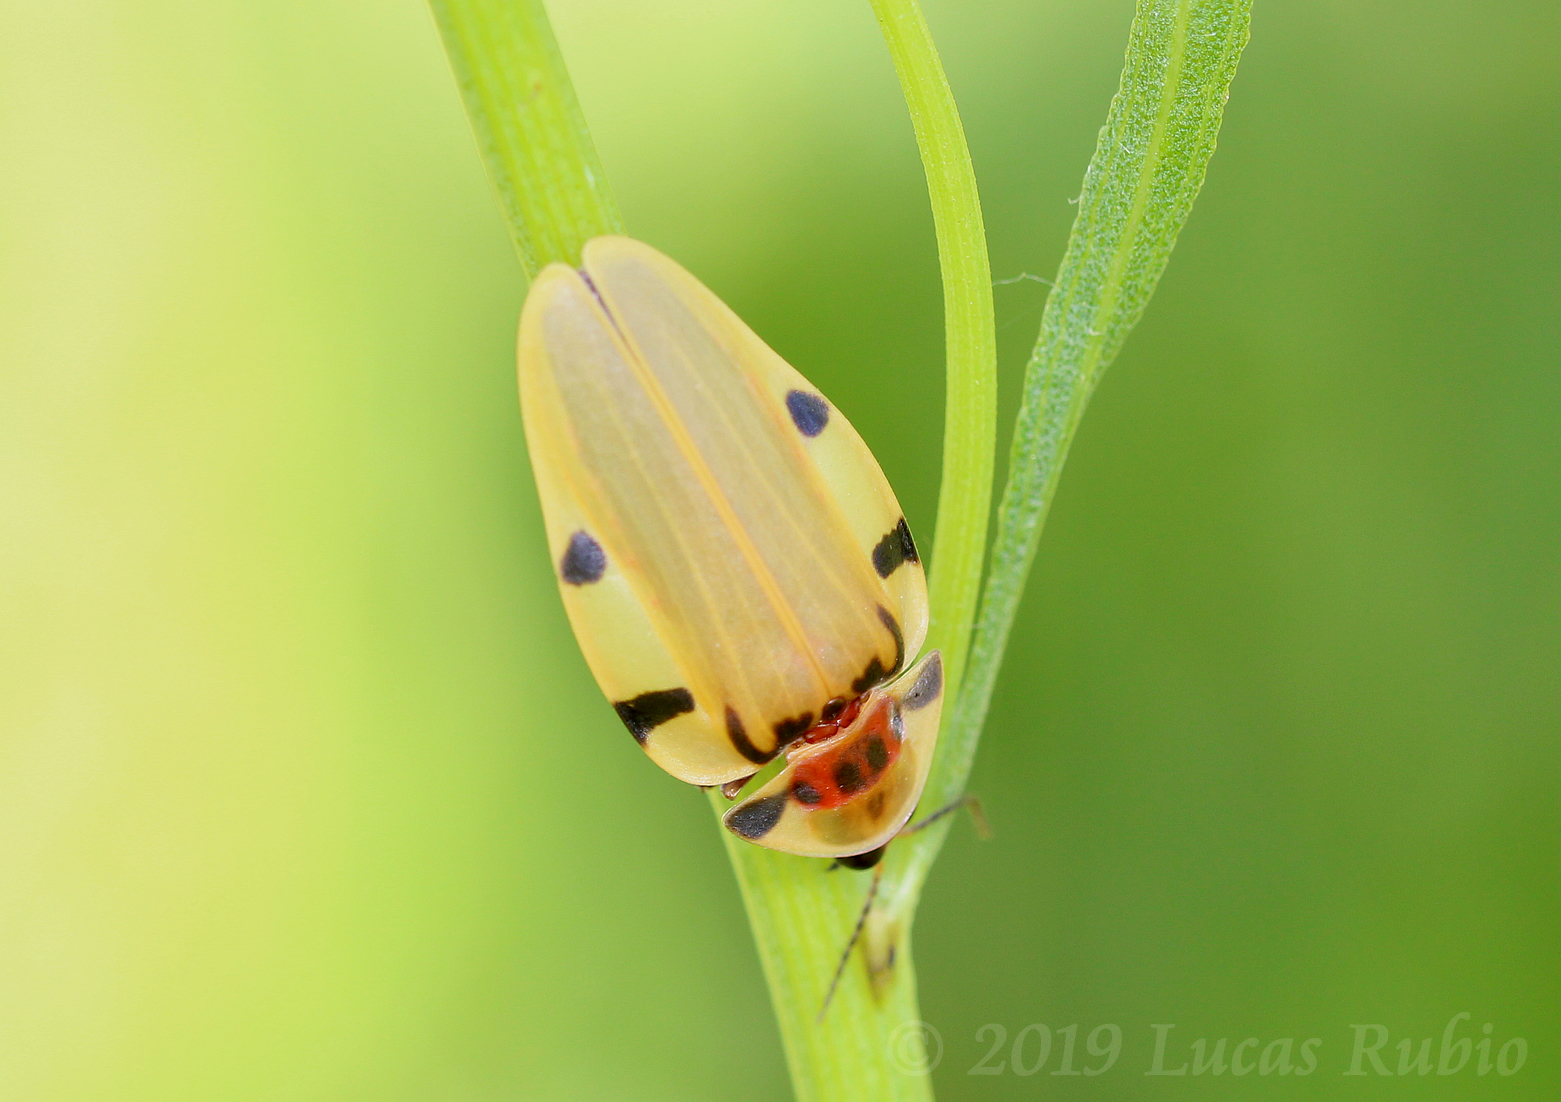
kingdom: Animalia
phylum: Arthropoda
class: Insecta
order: Coleoptera
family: Lampyridae
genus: Aspisoma
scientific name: Aspisoma sticticum
